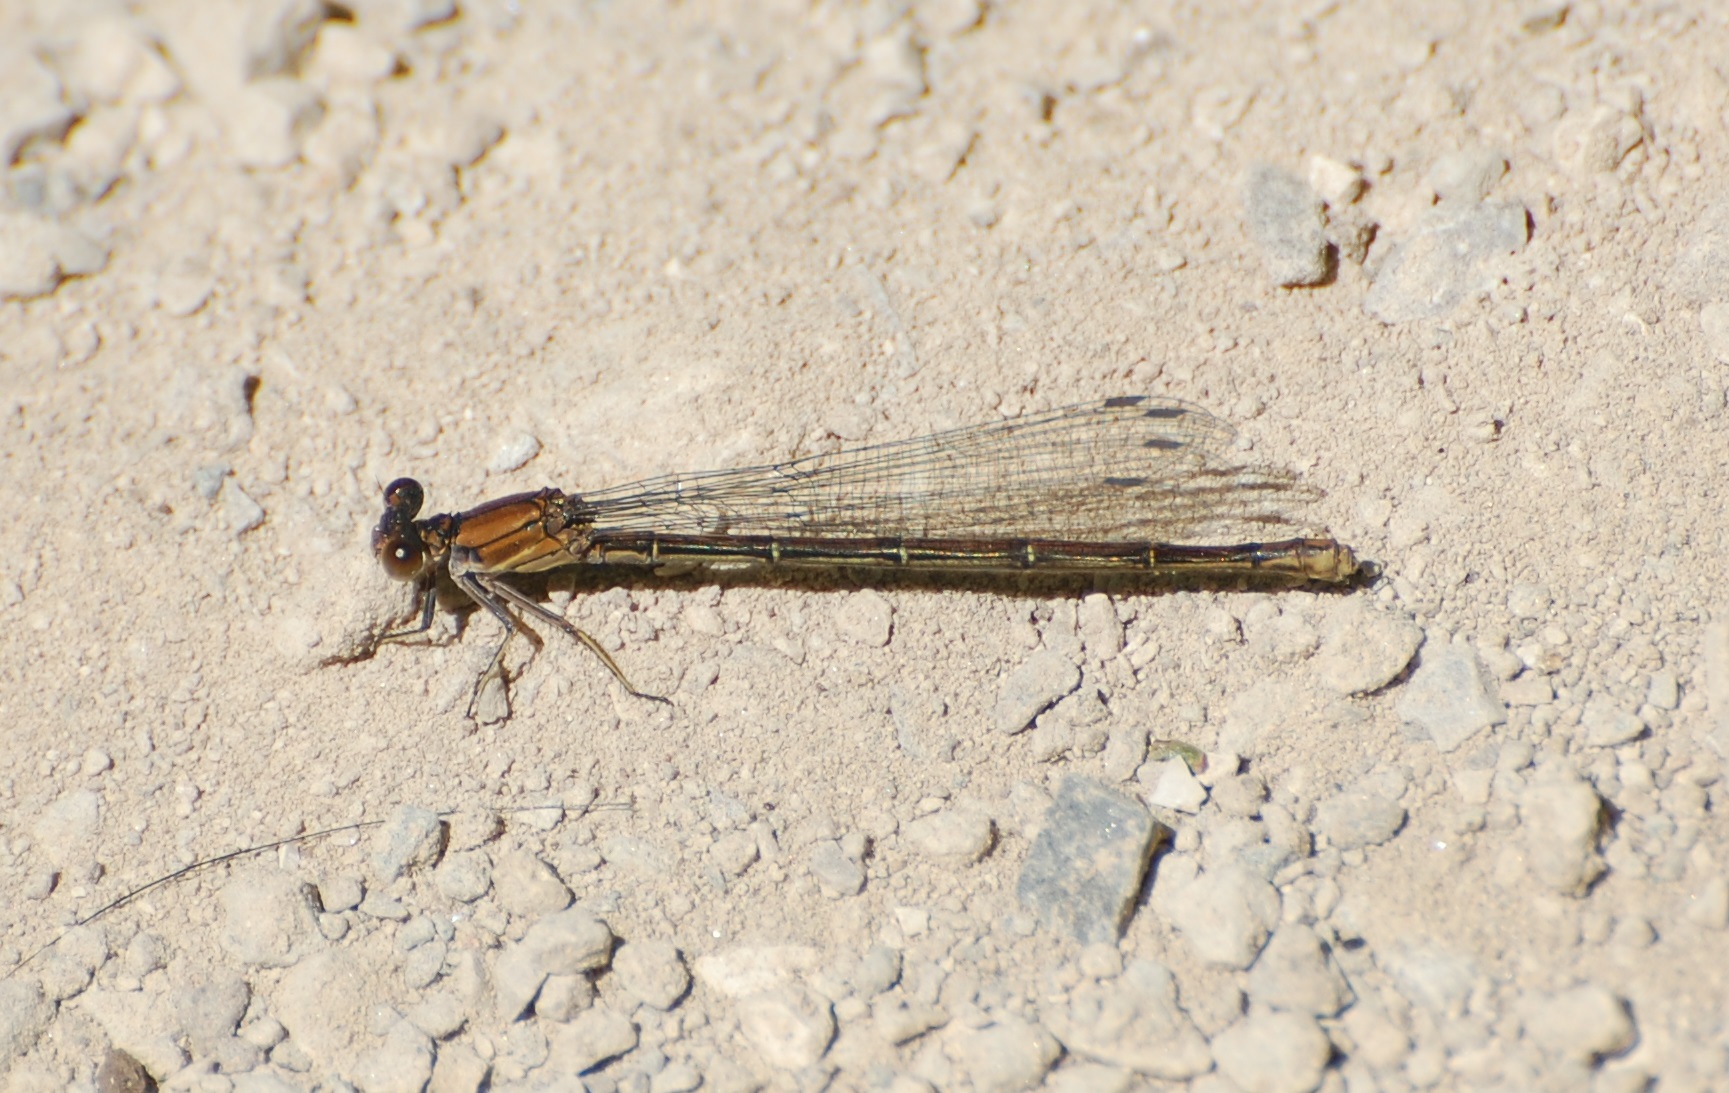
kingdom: Animalia
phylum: Arthropoda
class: Insecta
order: Odonata
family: Coenagrionidae
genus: Argia
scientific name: Argia moesta
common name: Powdered dancer
